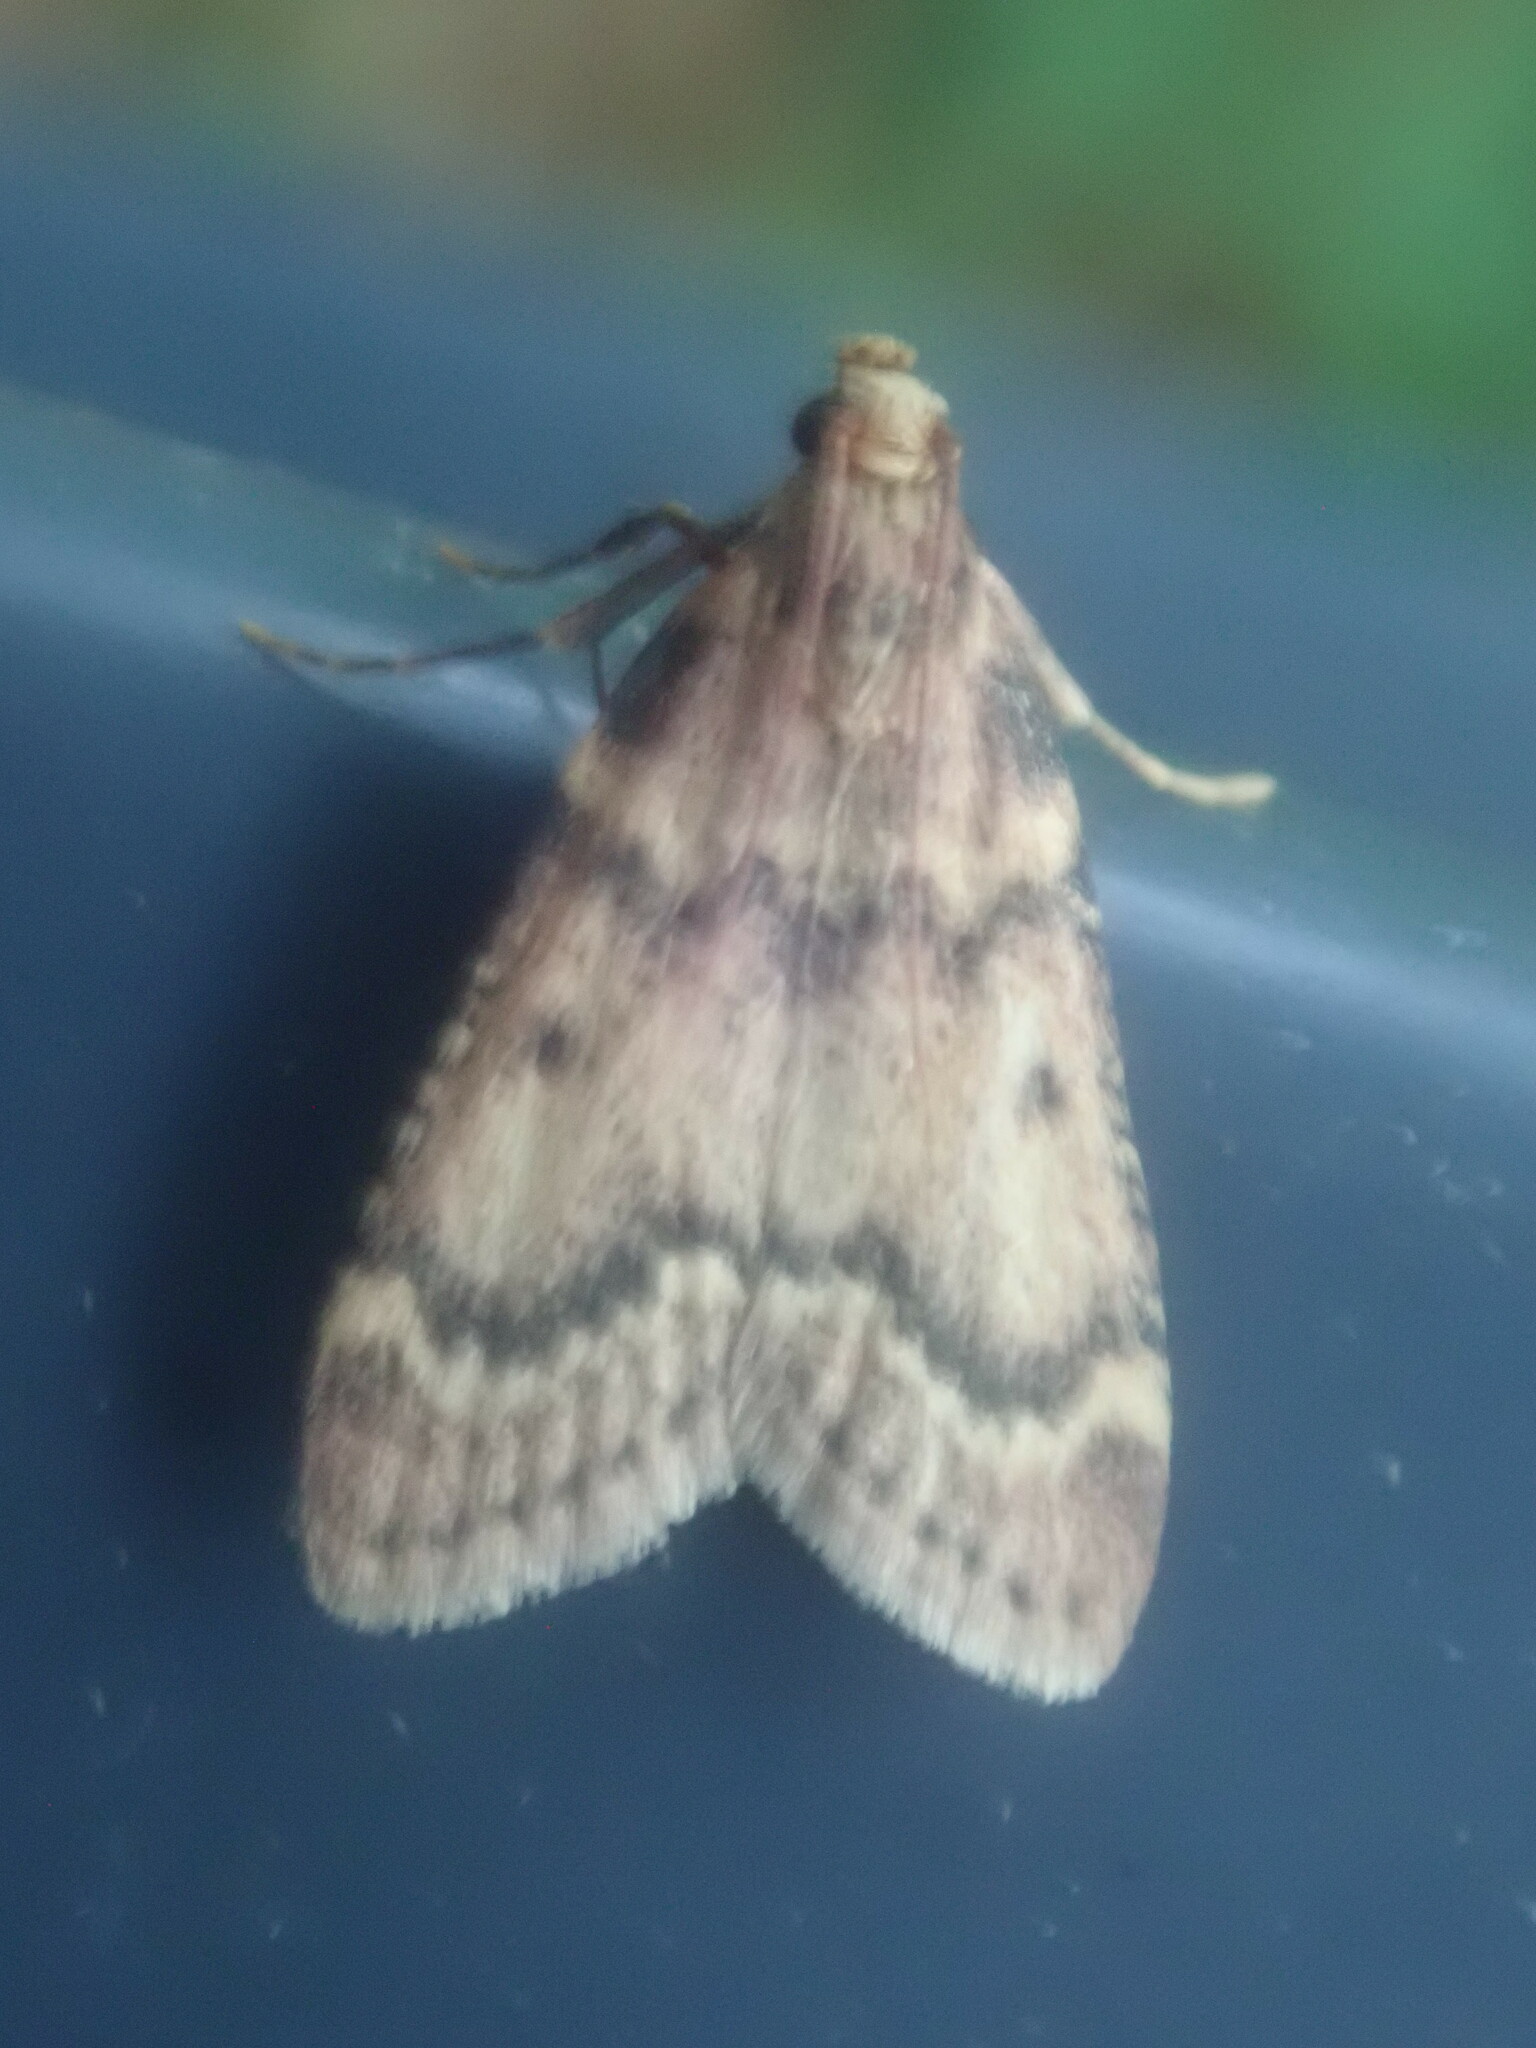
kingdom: Animalia
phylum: Arthropoda
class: Insecta
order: Lepidoptera
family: Pyralidae
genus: Aglossa
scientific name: Aglossa disciferalis
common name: Pink-masked pyralid moth
